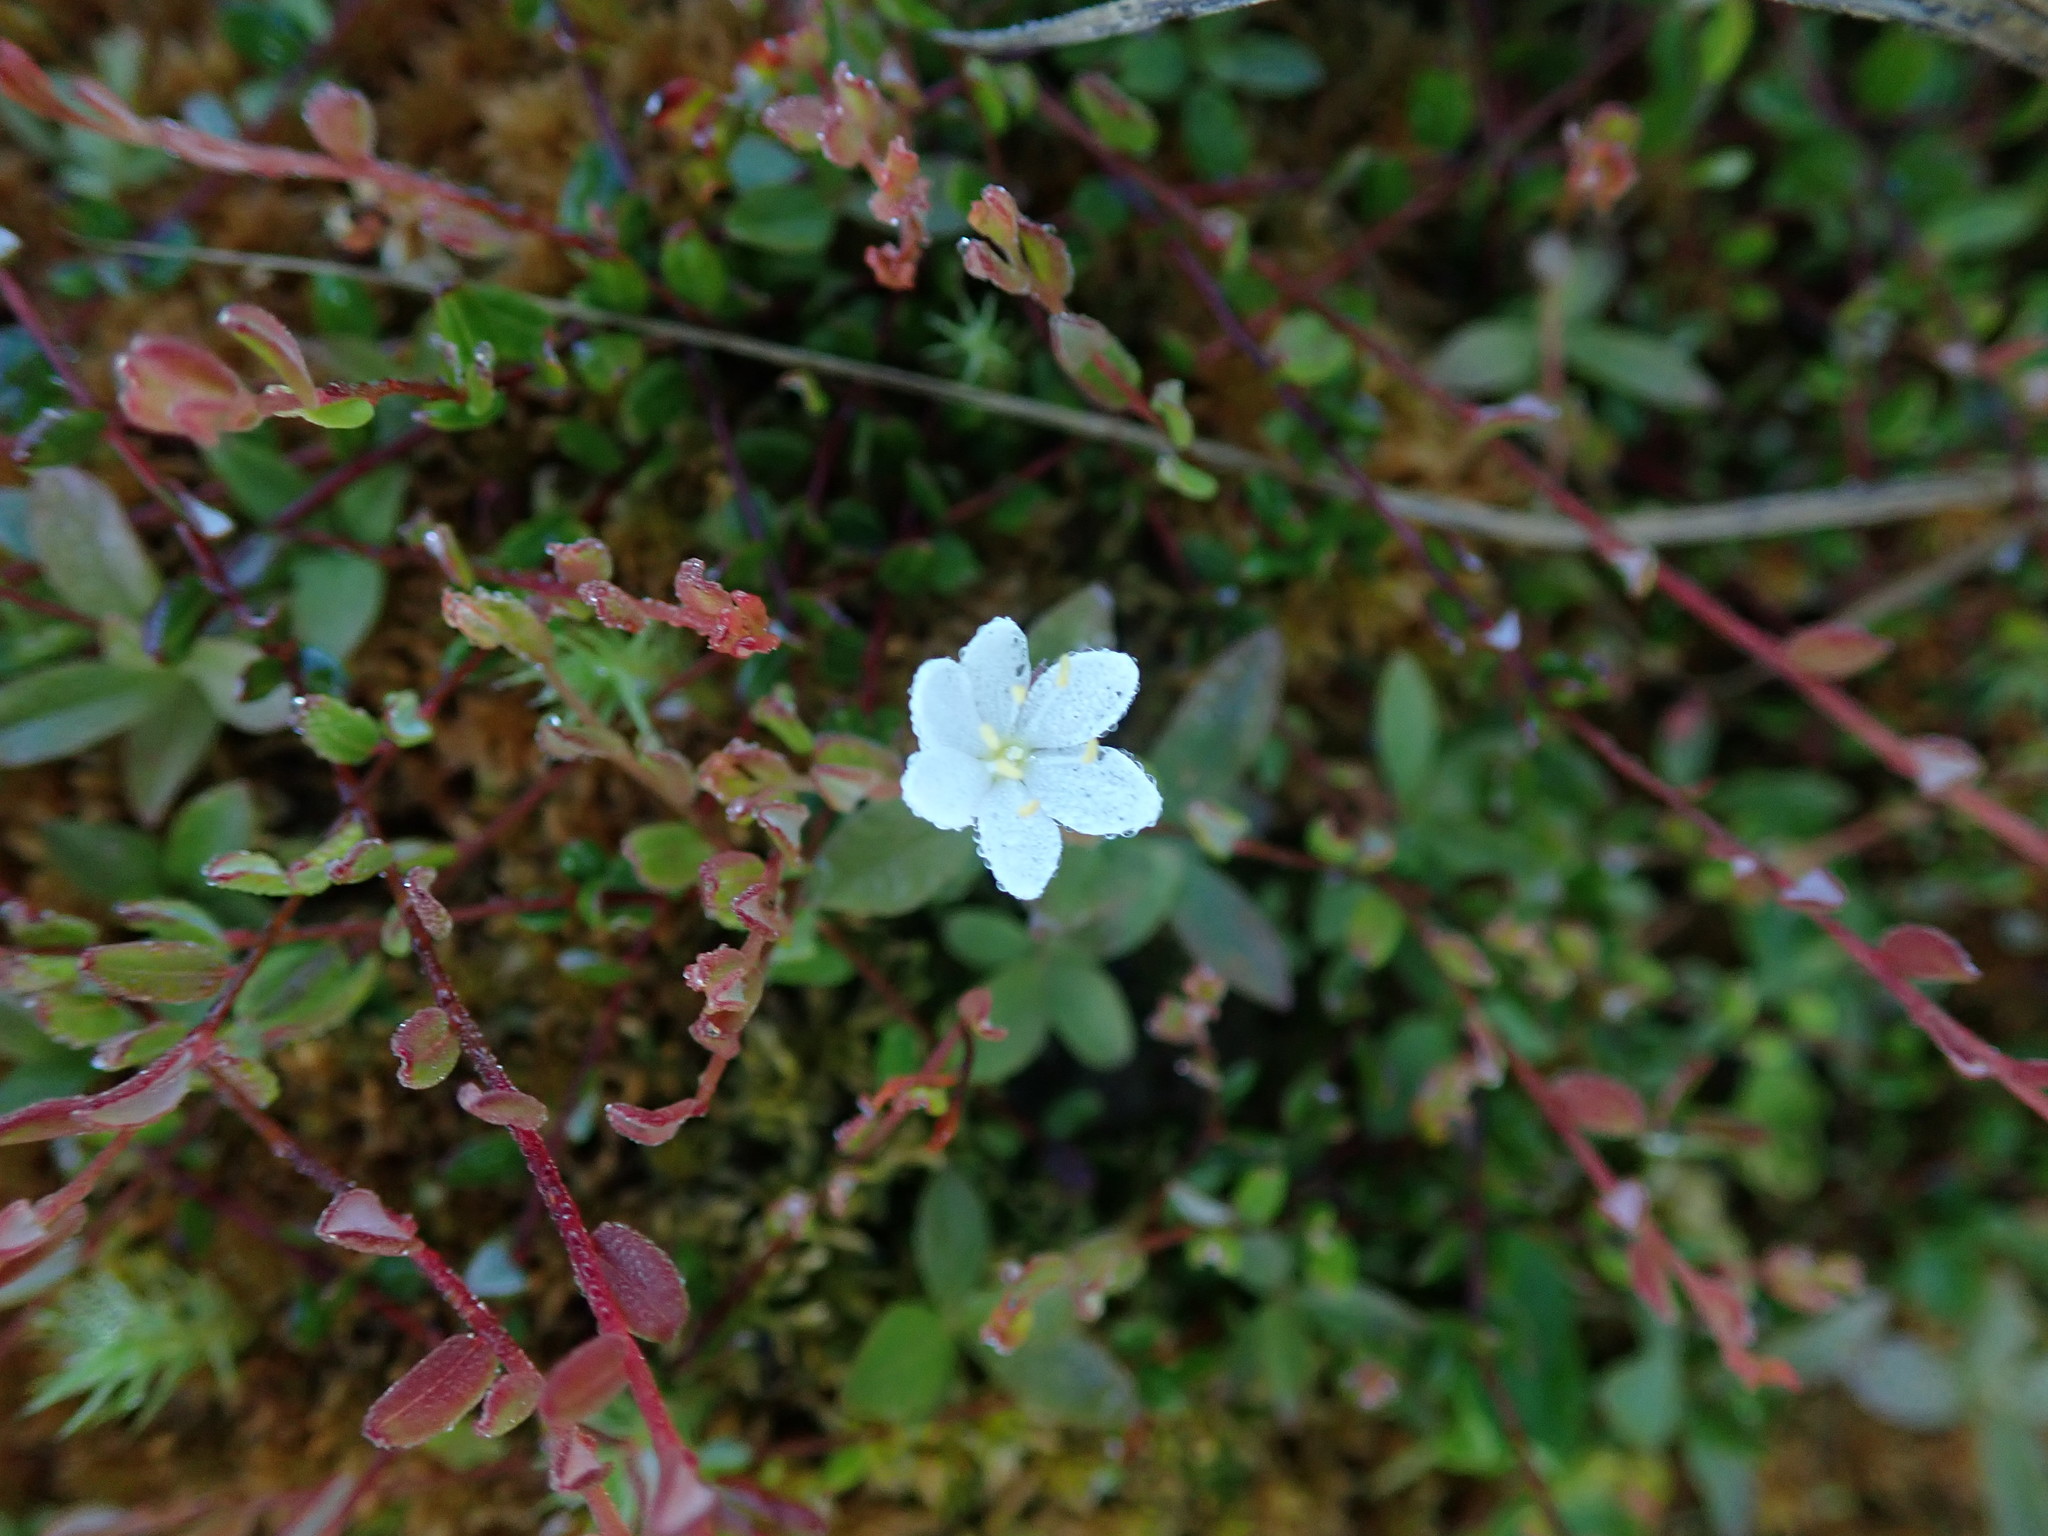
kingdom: Plantae
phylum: Tracheophyta
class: Magnoliopsida
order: Ericales
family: Primulaceae
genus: Lysimachia
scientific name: Lysimachia europaea
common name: Arctic starflower
